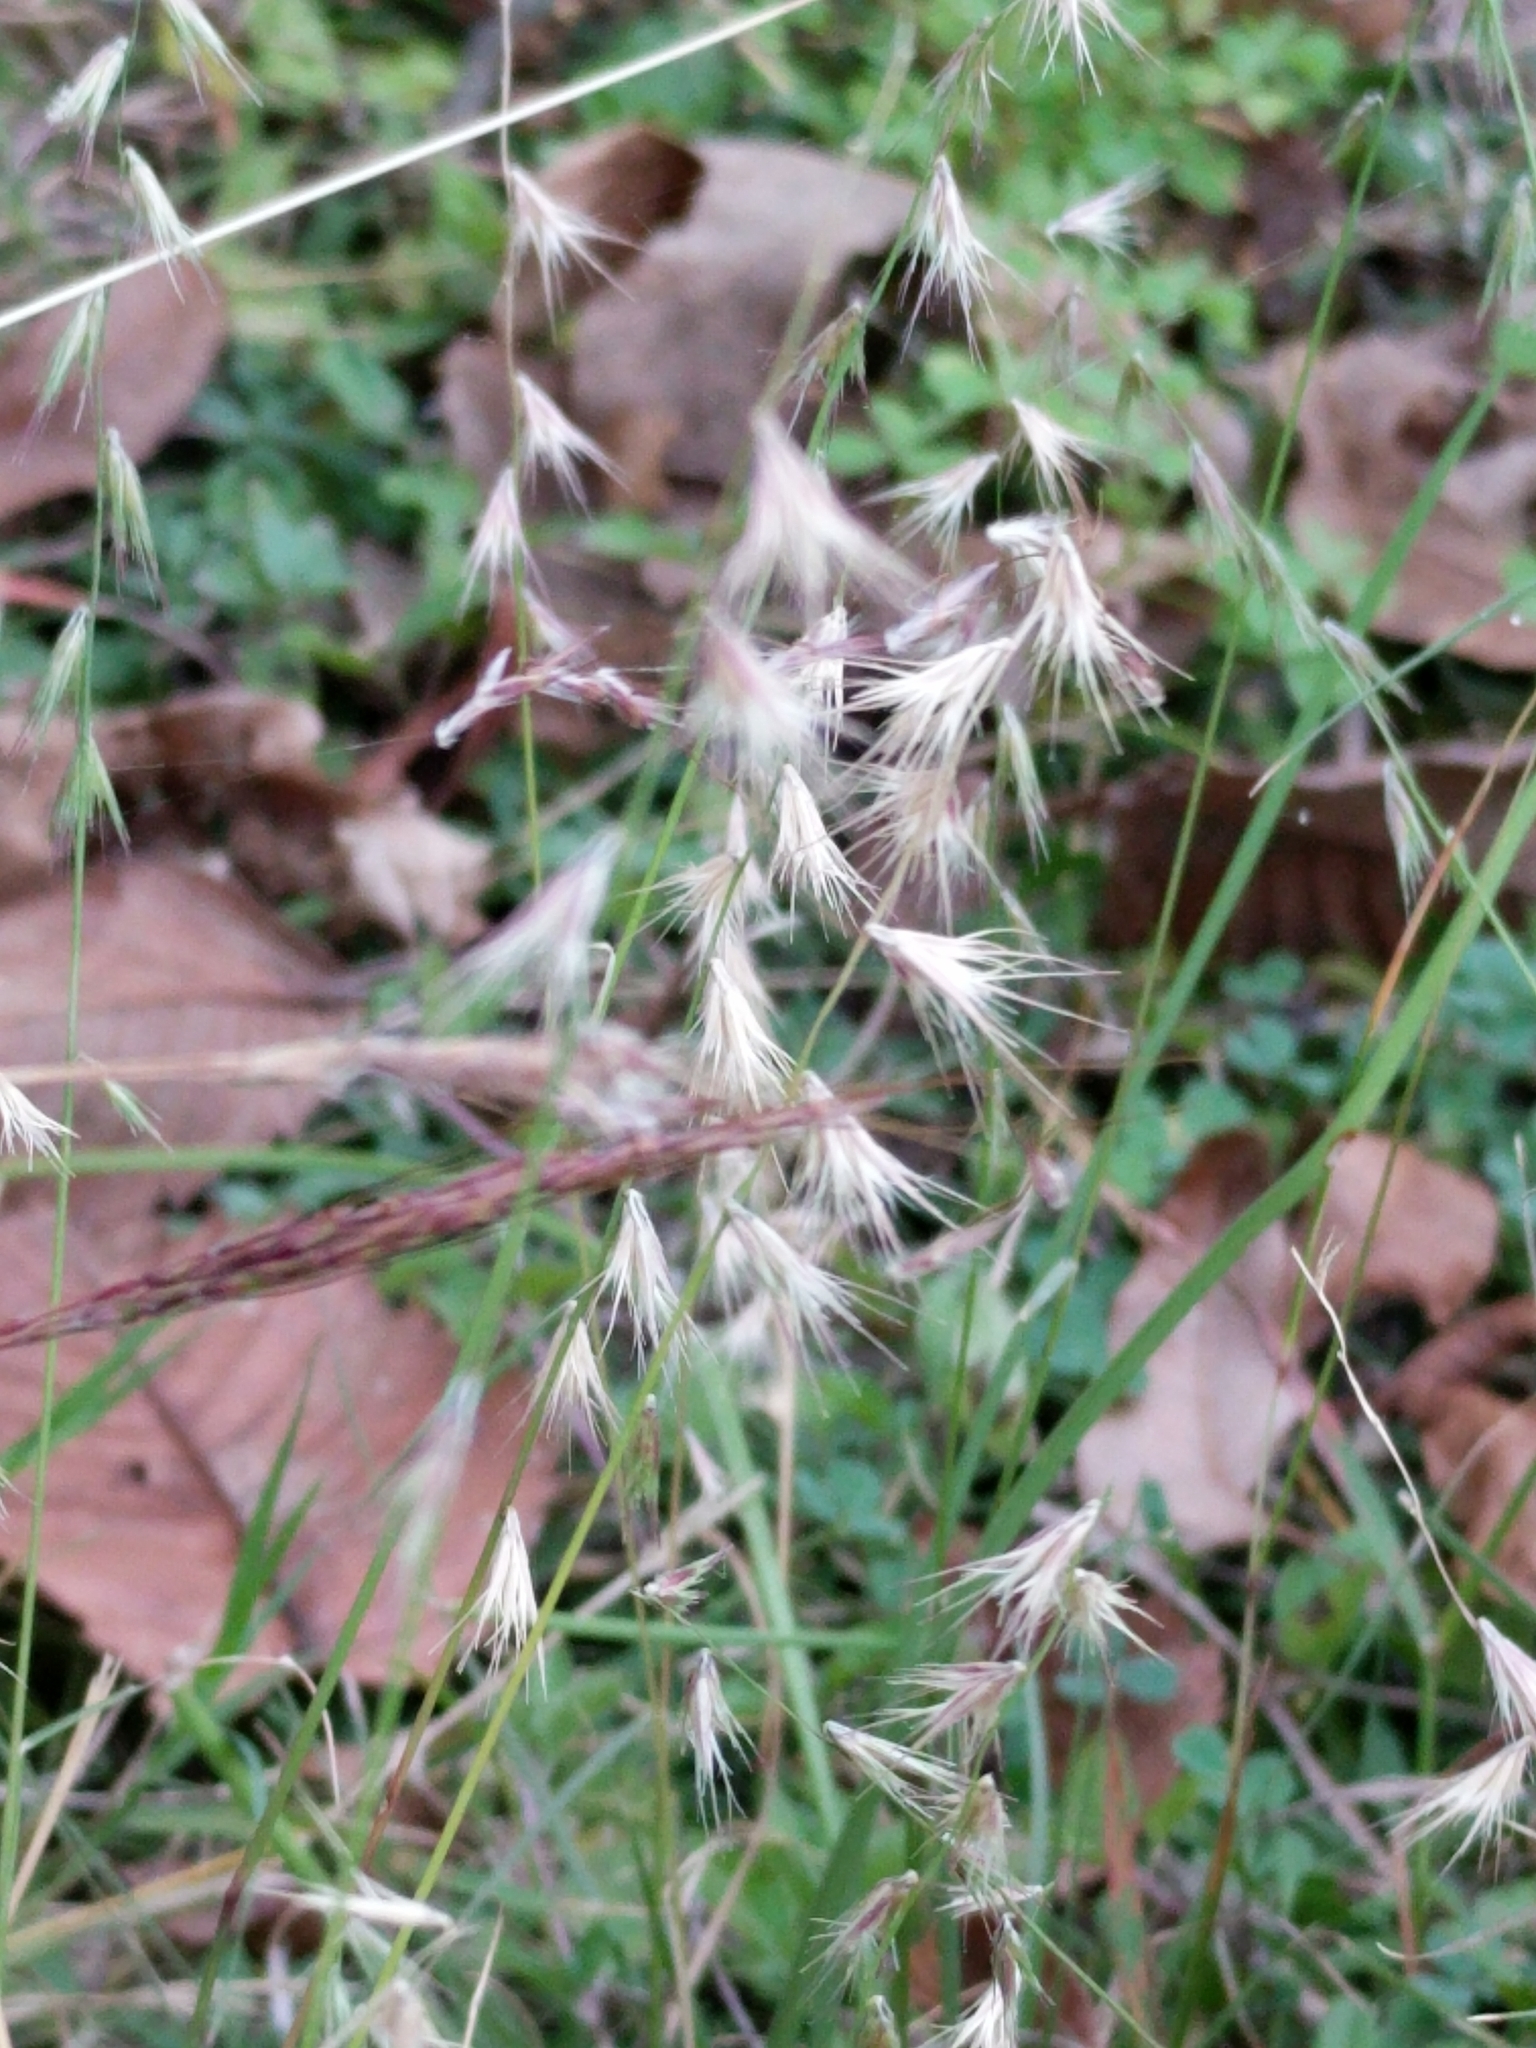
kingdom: Plantae
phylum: Tracheophyta
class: Liliopsida
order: Poales
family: Poaceae
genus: Bouteloua
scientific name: Bouteloua rigidiseta
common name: Texas grama
